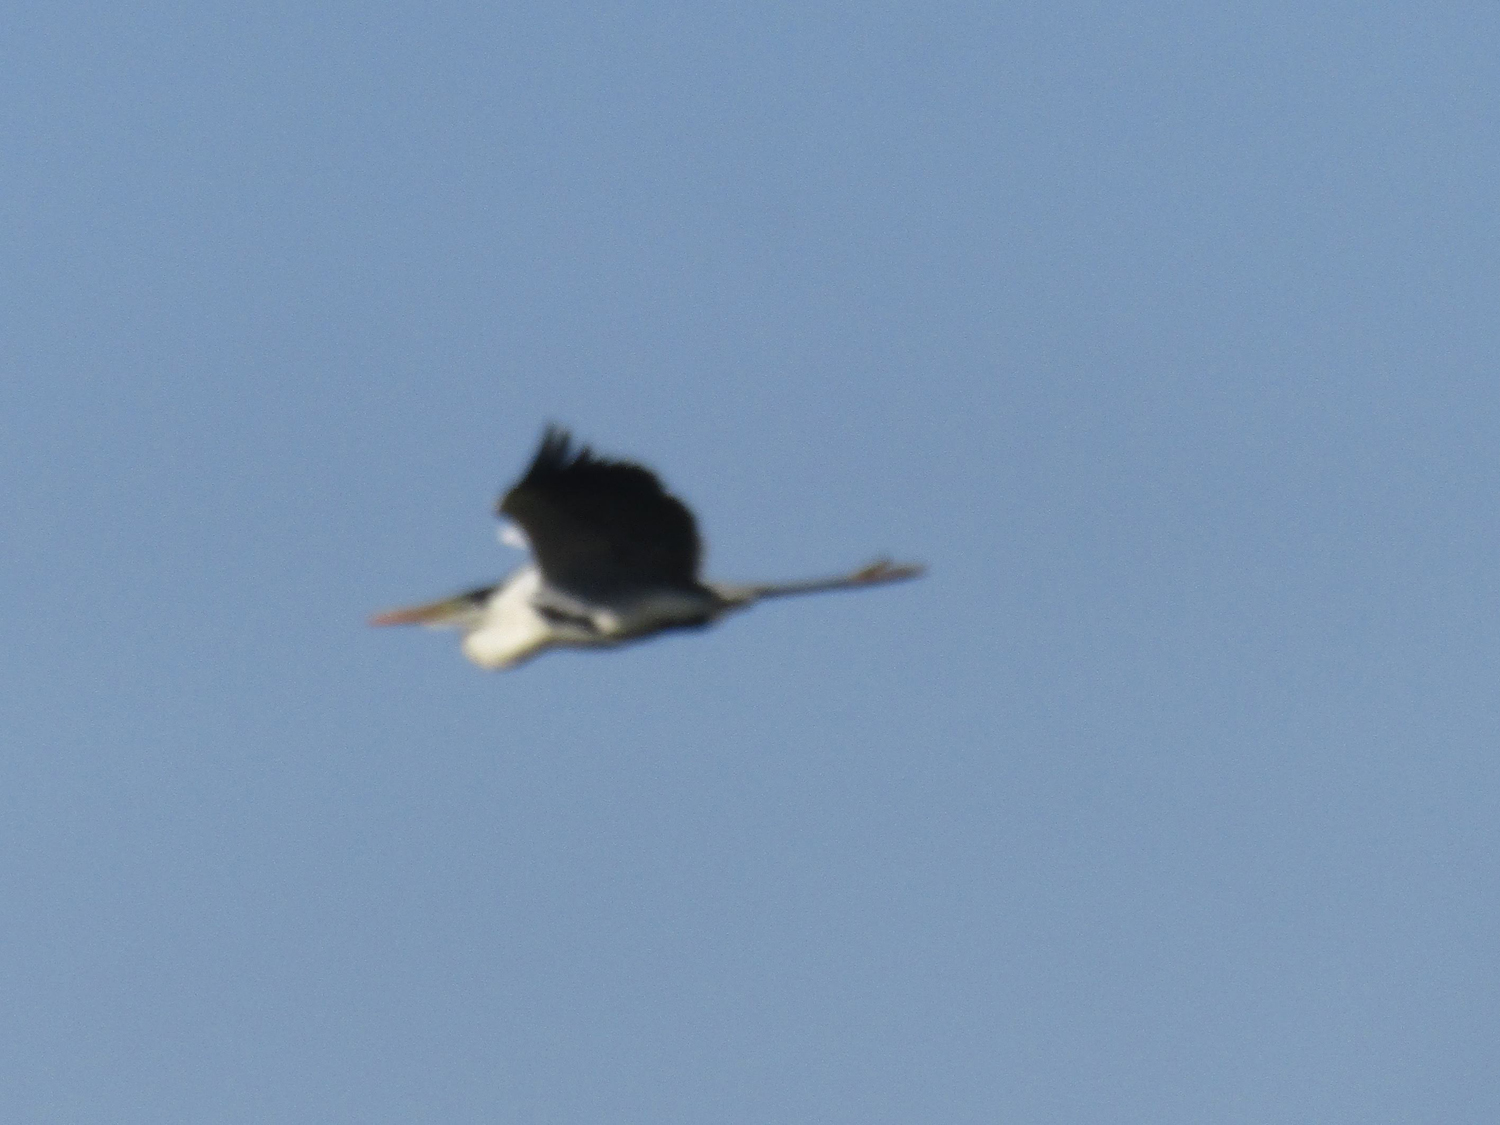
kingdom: Animalia
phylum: Chordata
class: Aves
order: Pelecaniformes
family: Ardeidae
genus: Ardea
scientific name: Ardea cocoi
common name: Cocoi heron
